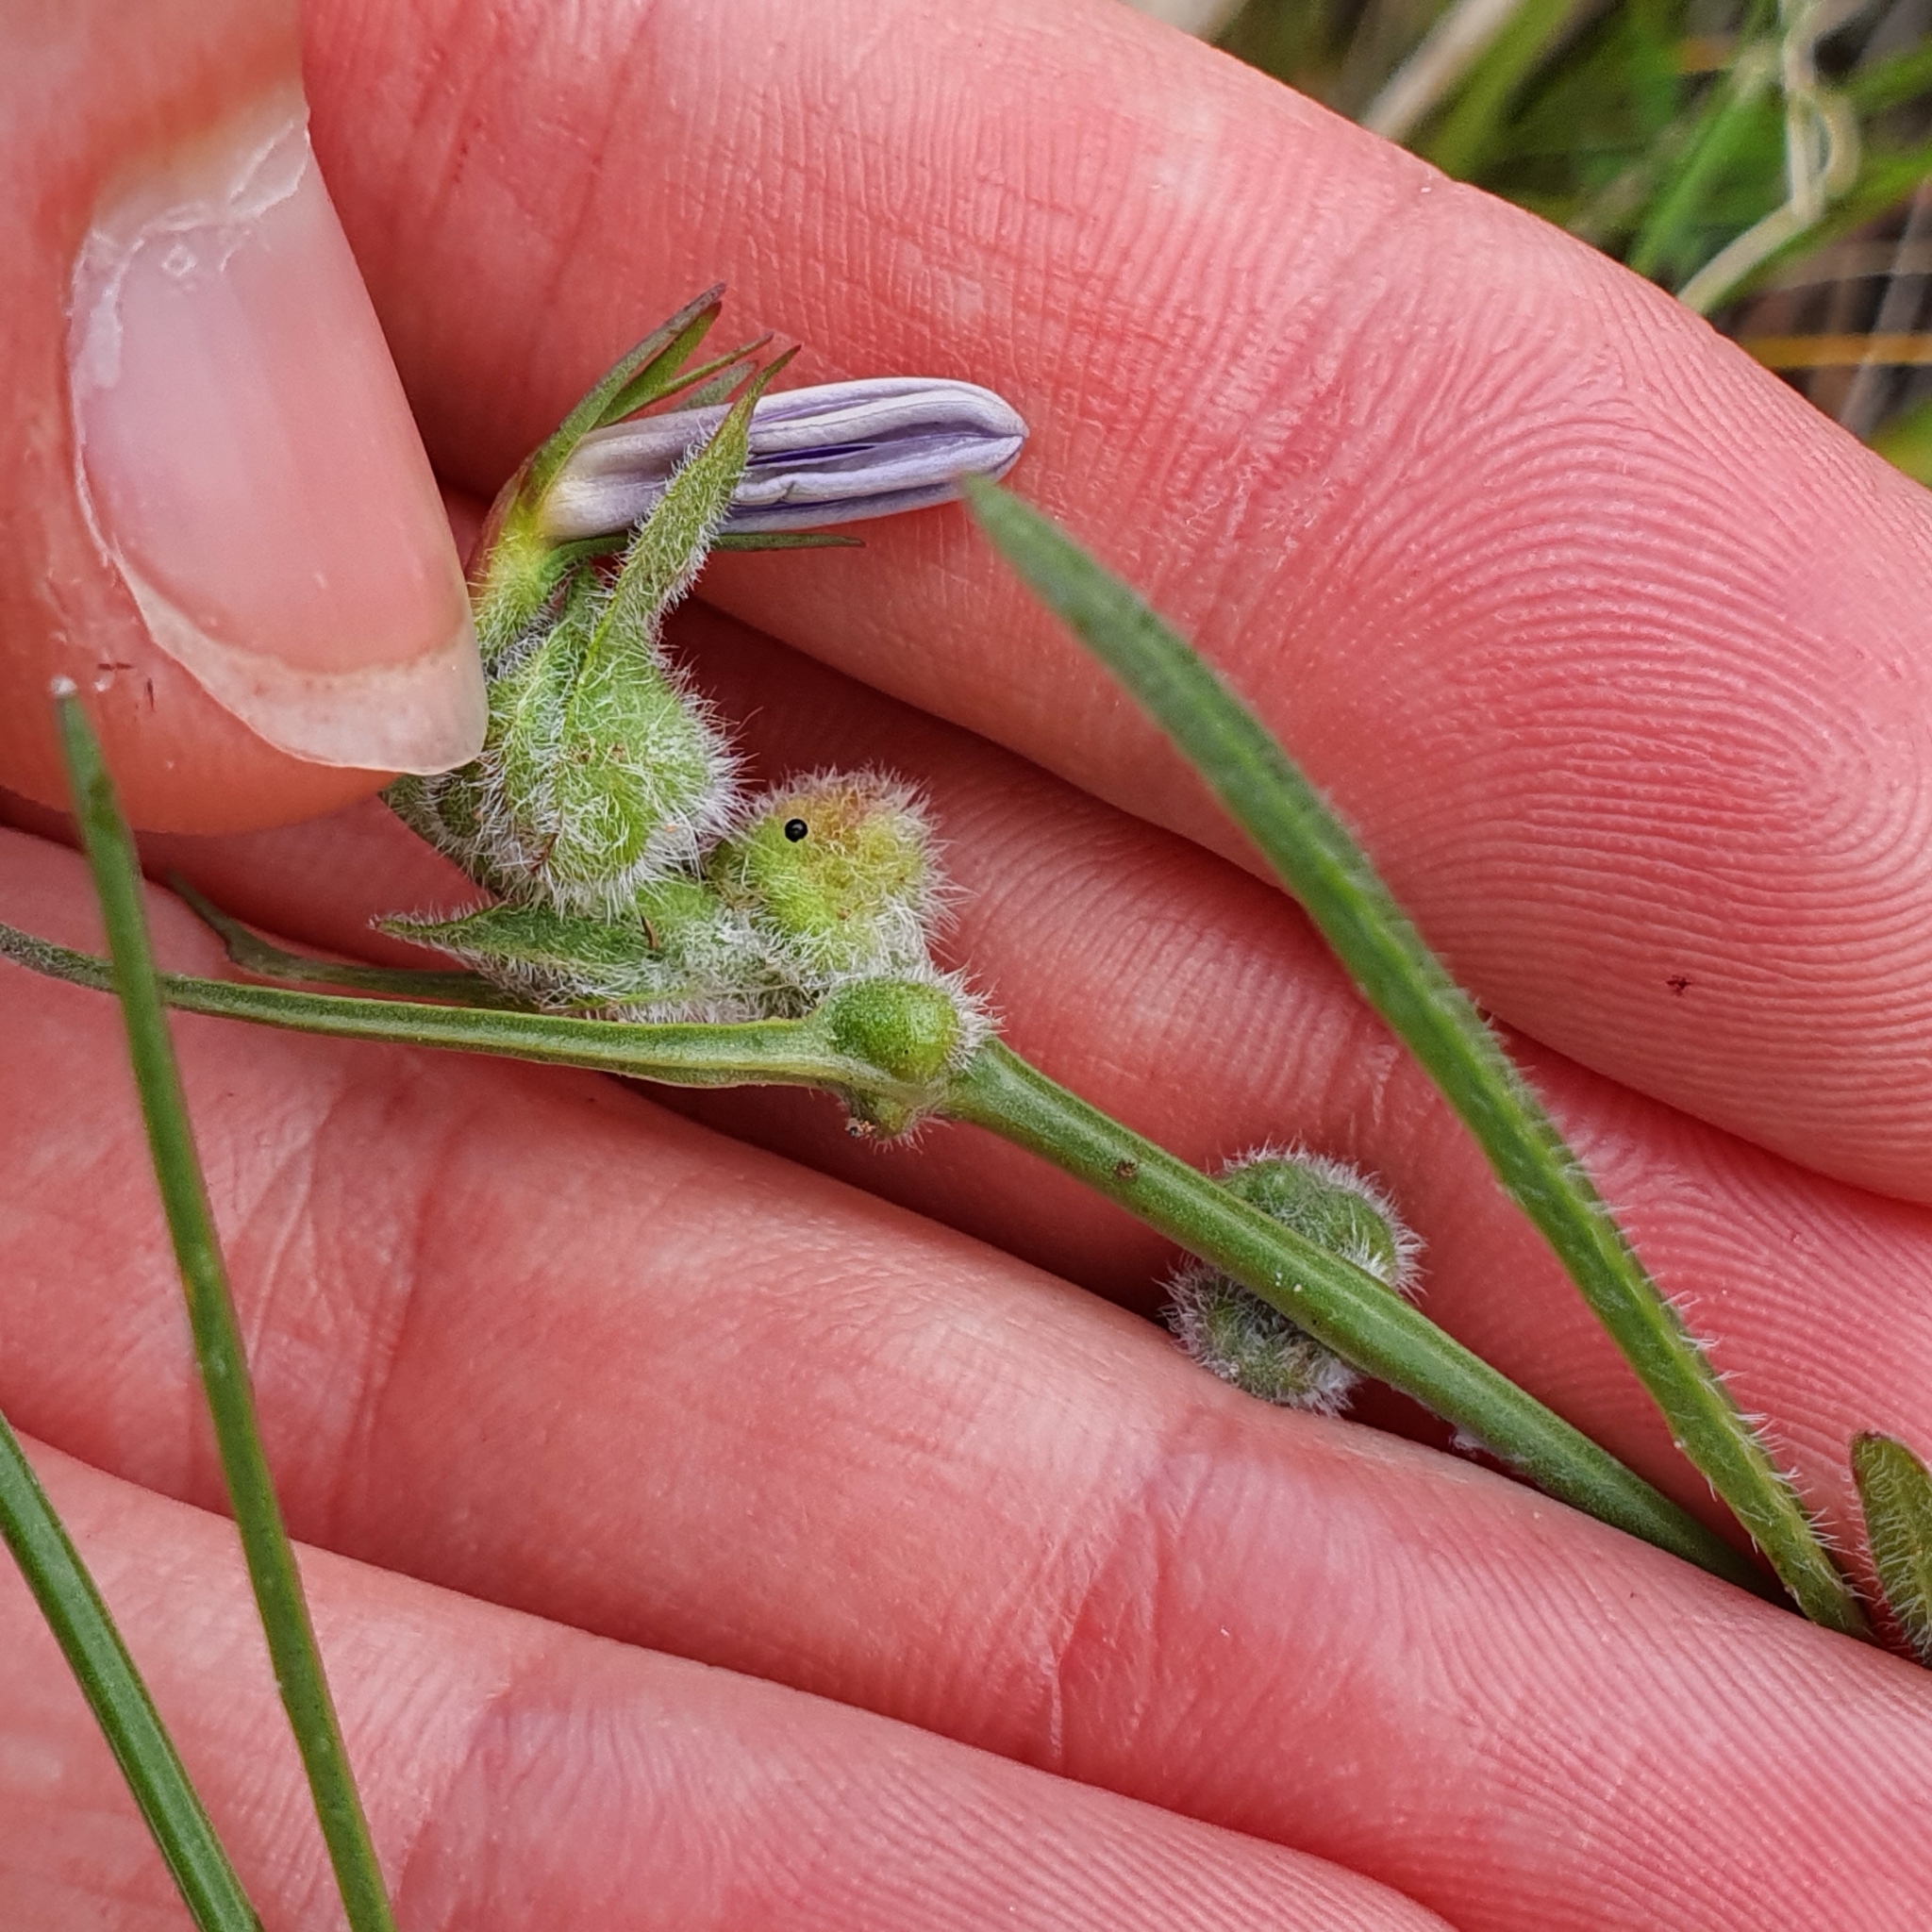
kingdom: Plantae
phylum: Tracheophyta
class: Magnoliopsida
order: Asterales
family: Campanulaceae
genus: Wahlenbergia
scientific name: Wahlenbergia
